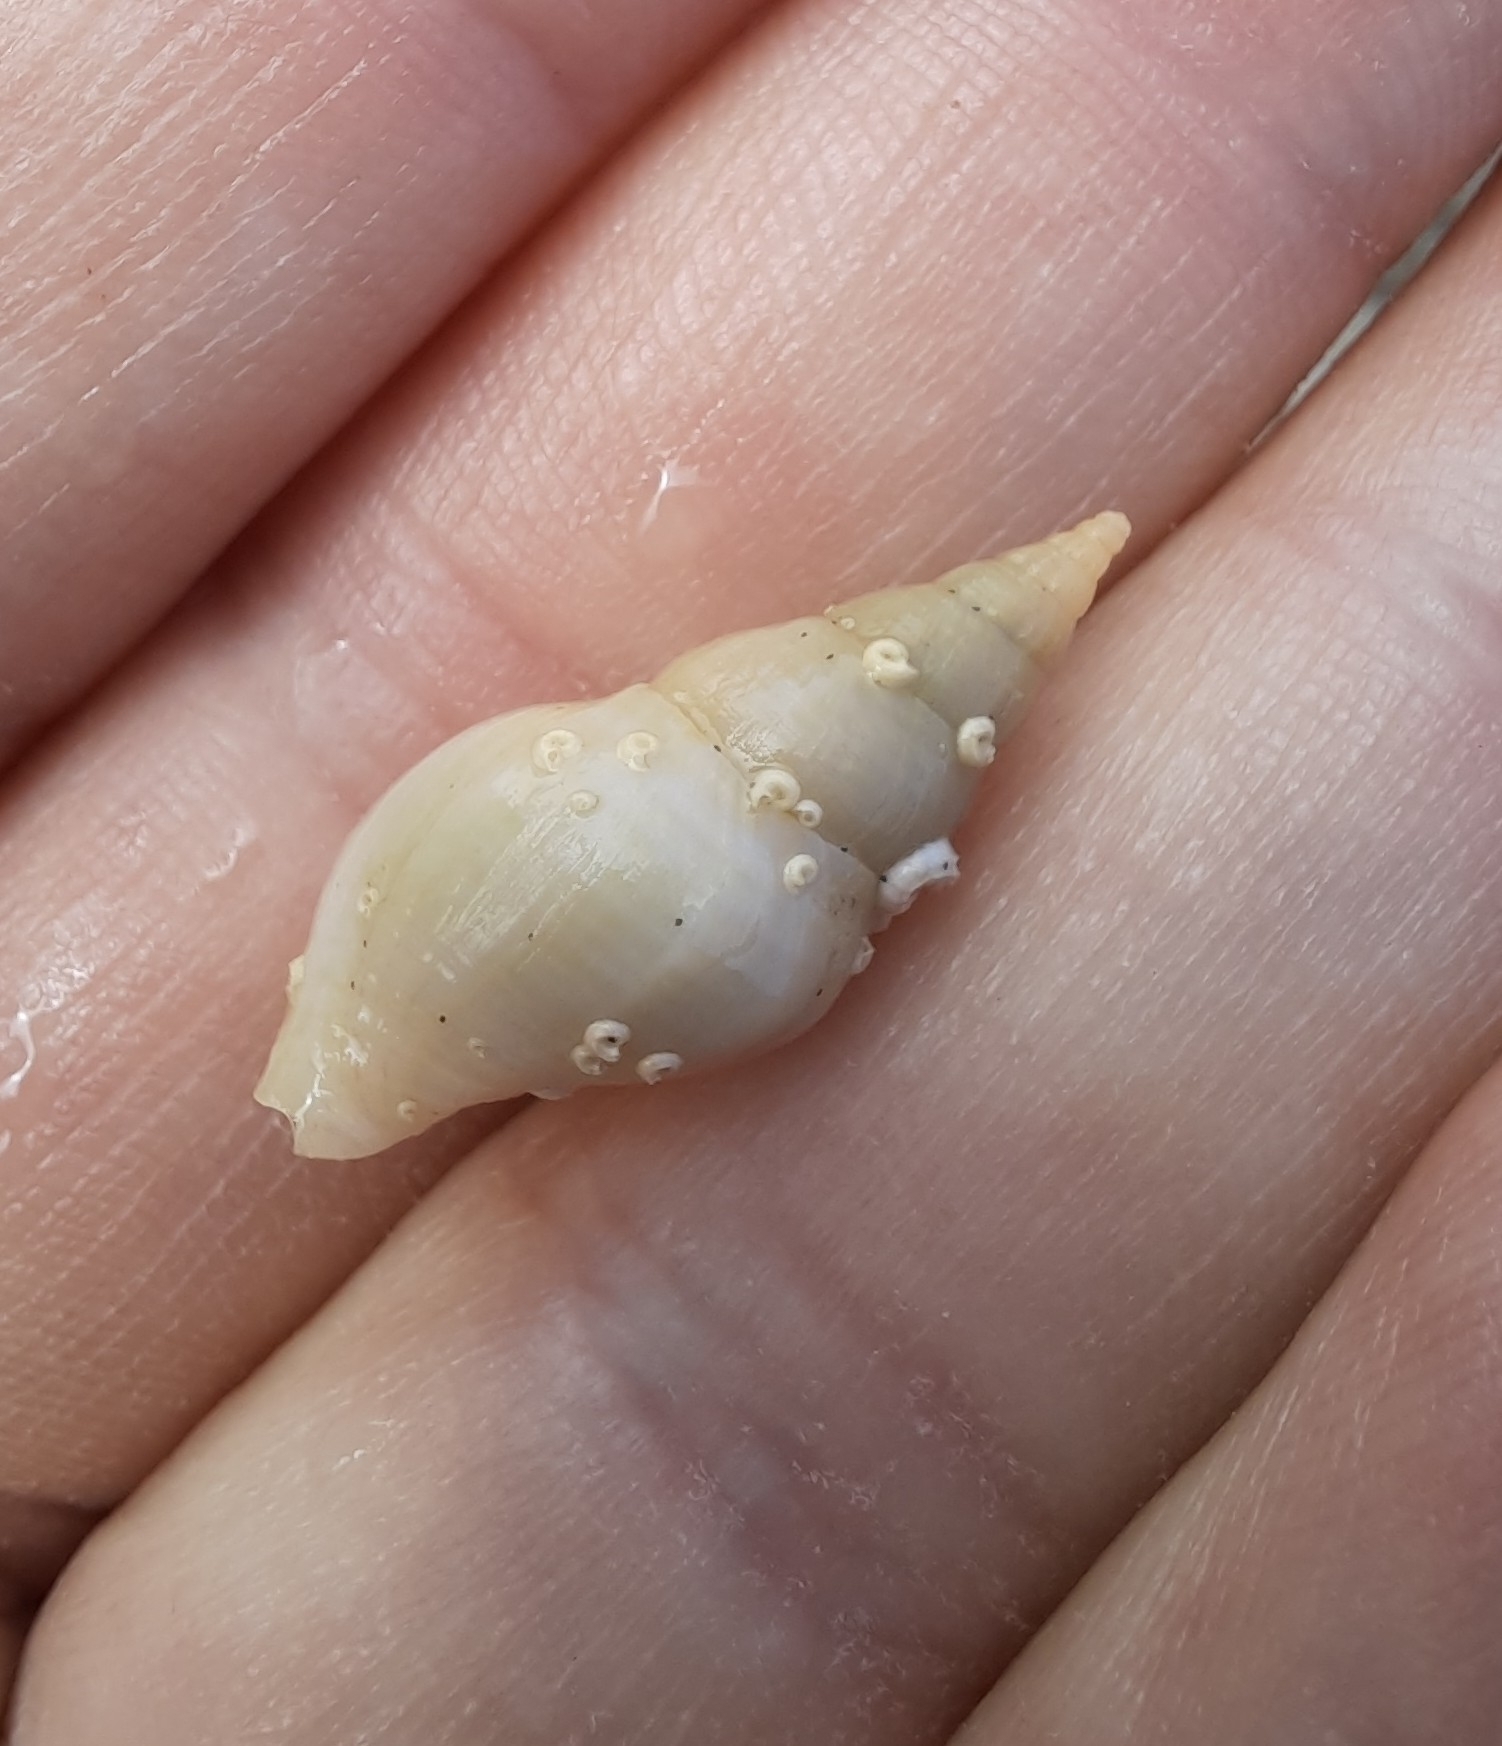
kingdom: Animalia
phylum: Mollusca
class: Gastropoda
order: Neogastropoda
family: Tudiclidae
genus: Buccinulum
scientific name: Buccinulum littorinoides
